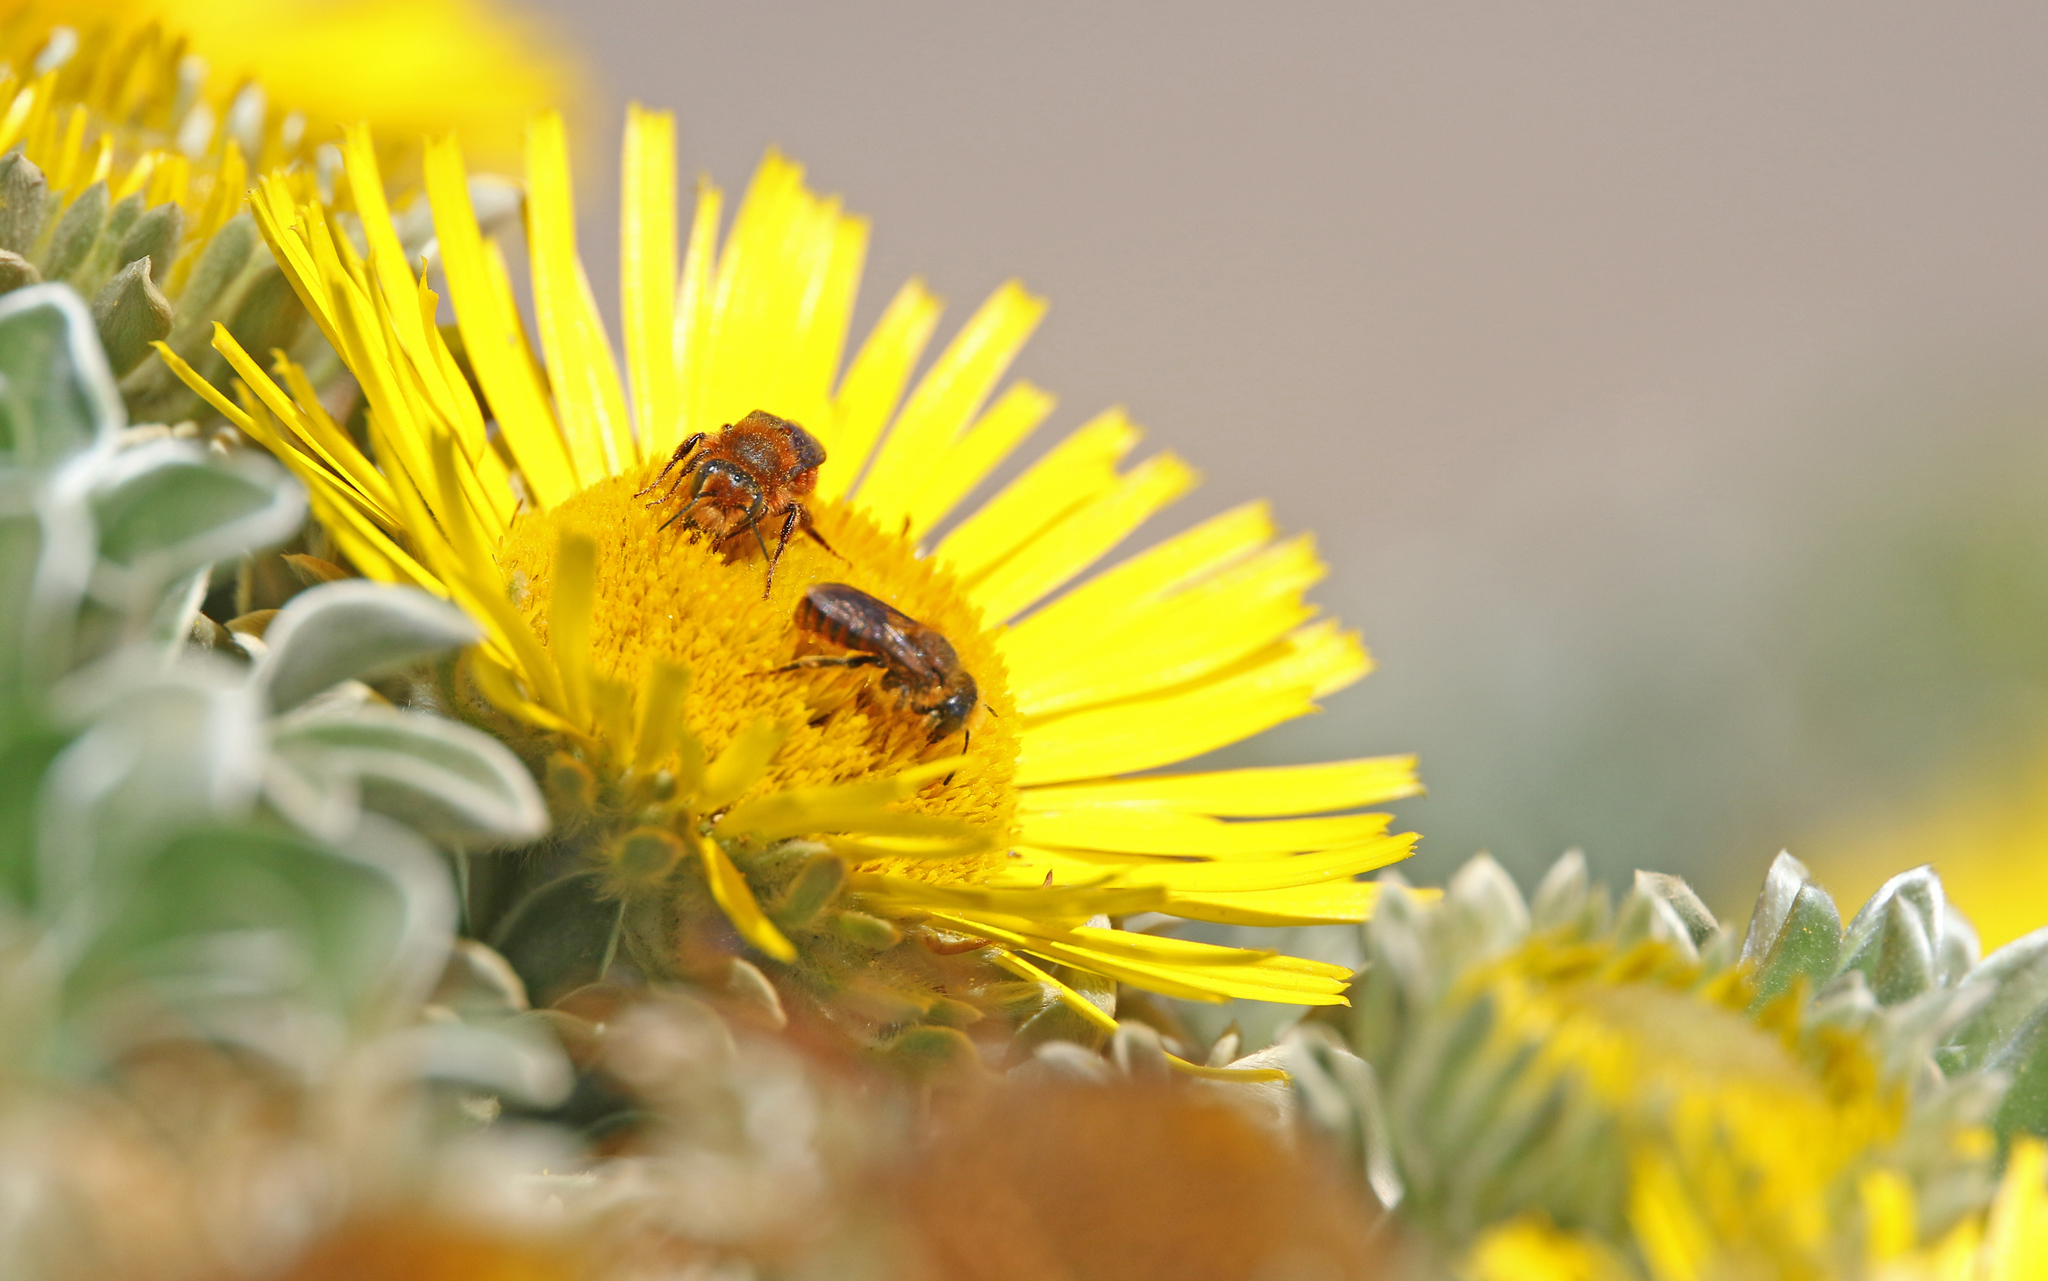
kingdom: Animalia
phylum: Arthropoda
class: Insecta
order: Hymenoptera
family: Megachilidae
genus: Osmia
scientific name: Osmia cinnabarina
